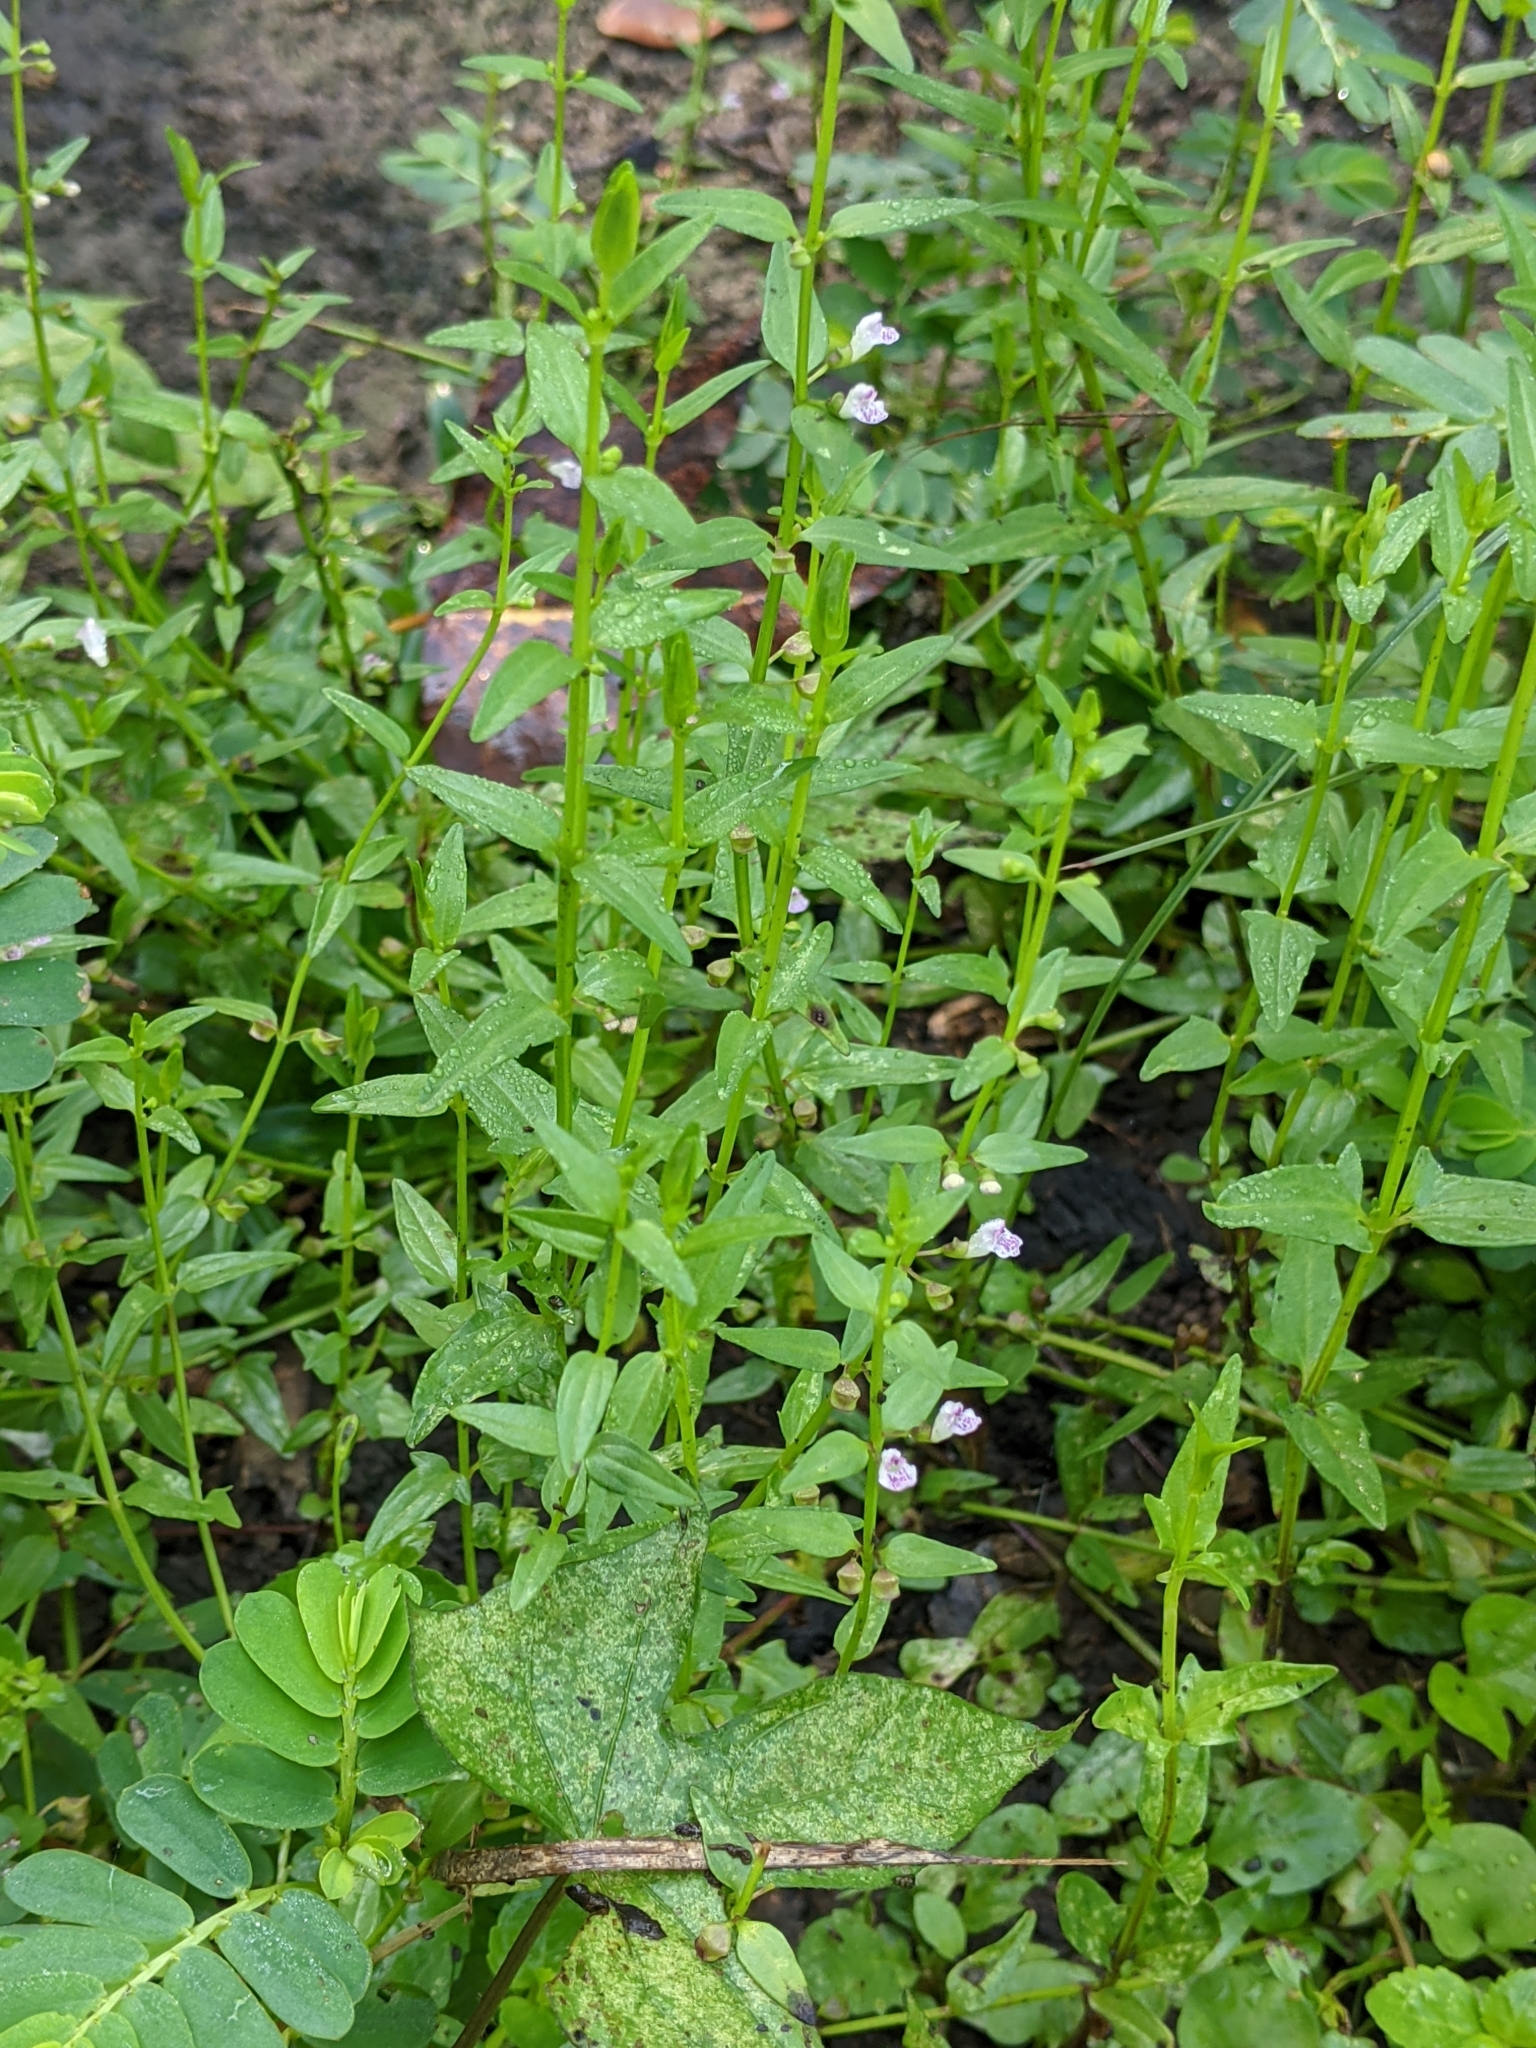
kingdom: Plantae
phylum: Tracheophyta
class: Magnoliopsida
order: Lamiales
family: Lamiaceae
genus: Scutellaria
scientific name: Scutellaria racemosa
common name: South american skullcap
